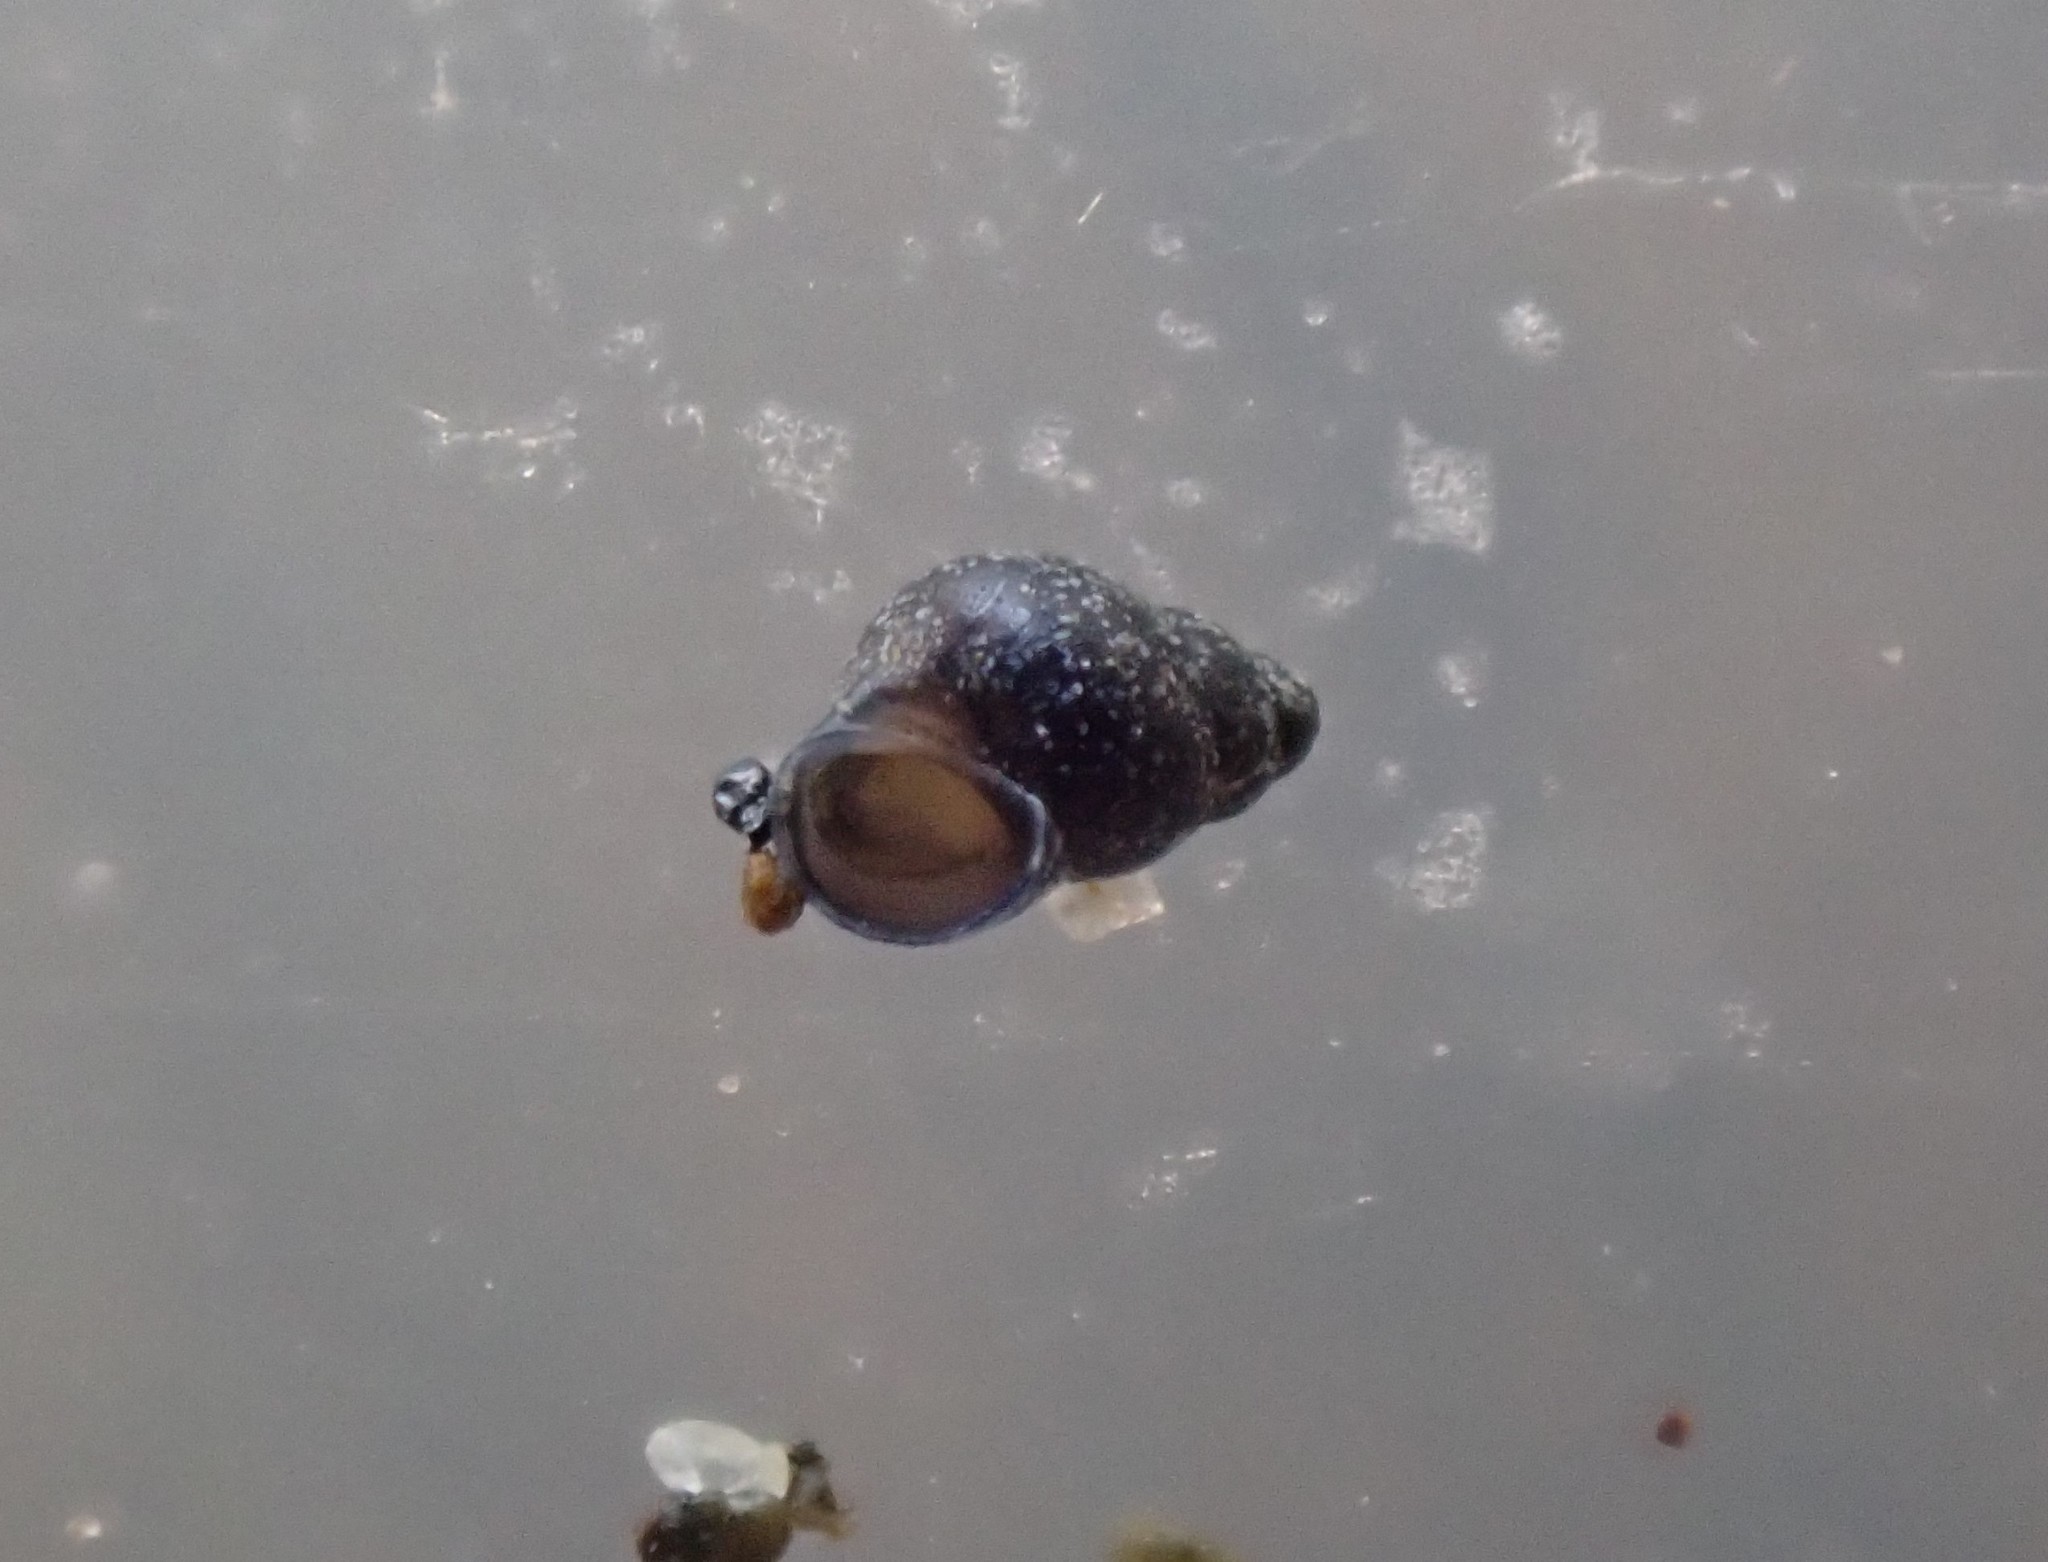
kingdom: Animalia
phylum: Mollusca
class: Gastropoda
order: Littorinimorpha
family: Eatoniellidae
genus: Eatoniella
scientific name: Eatoniella olivacea
